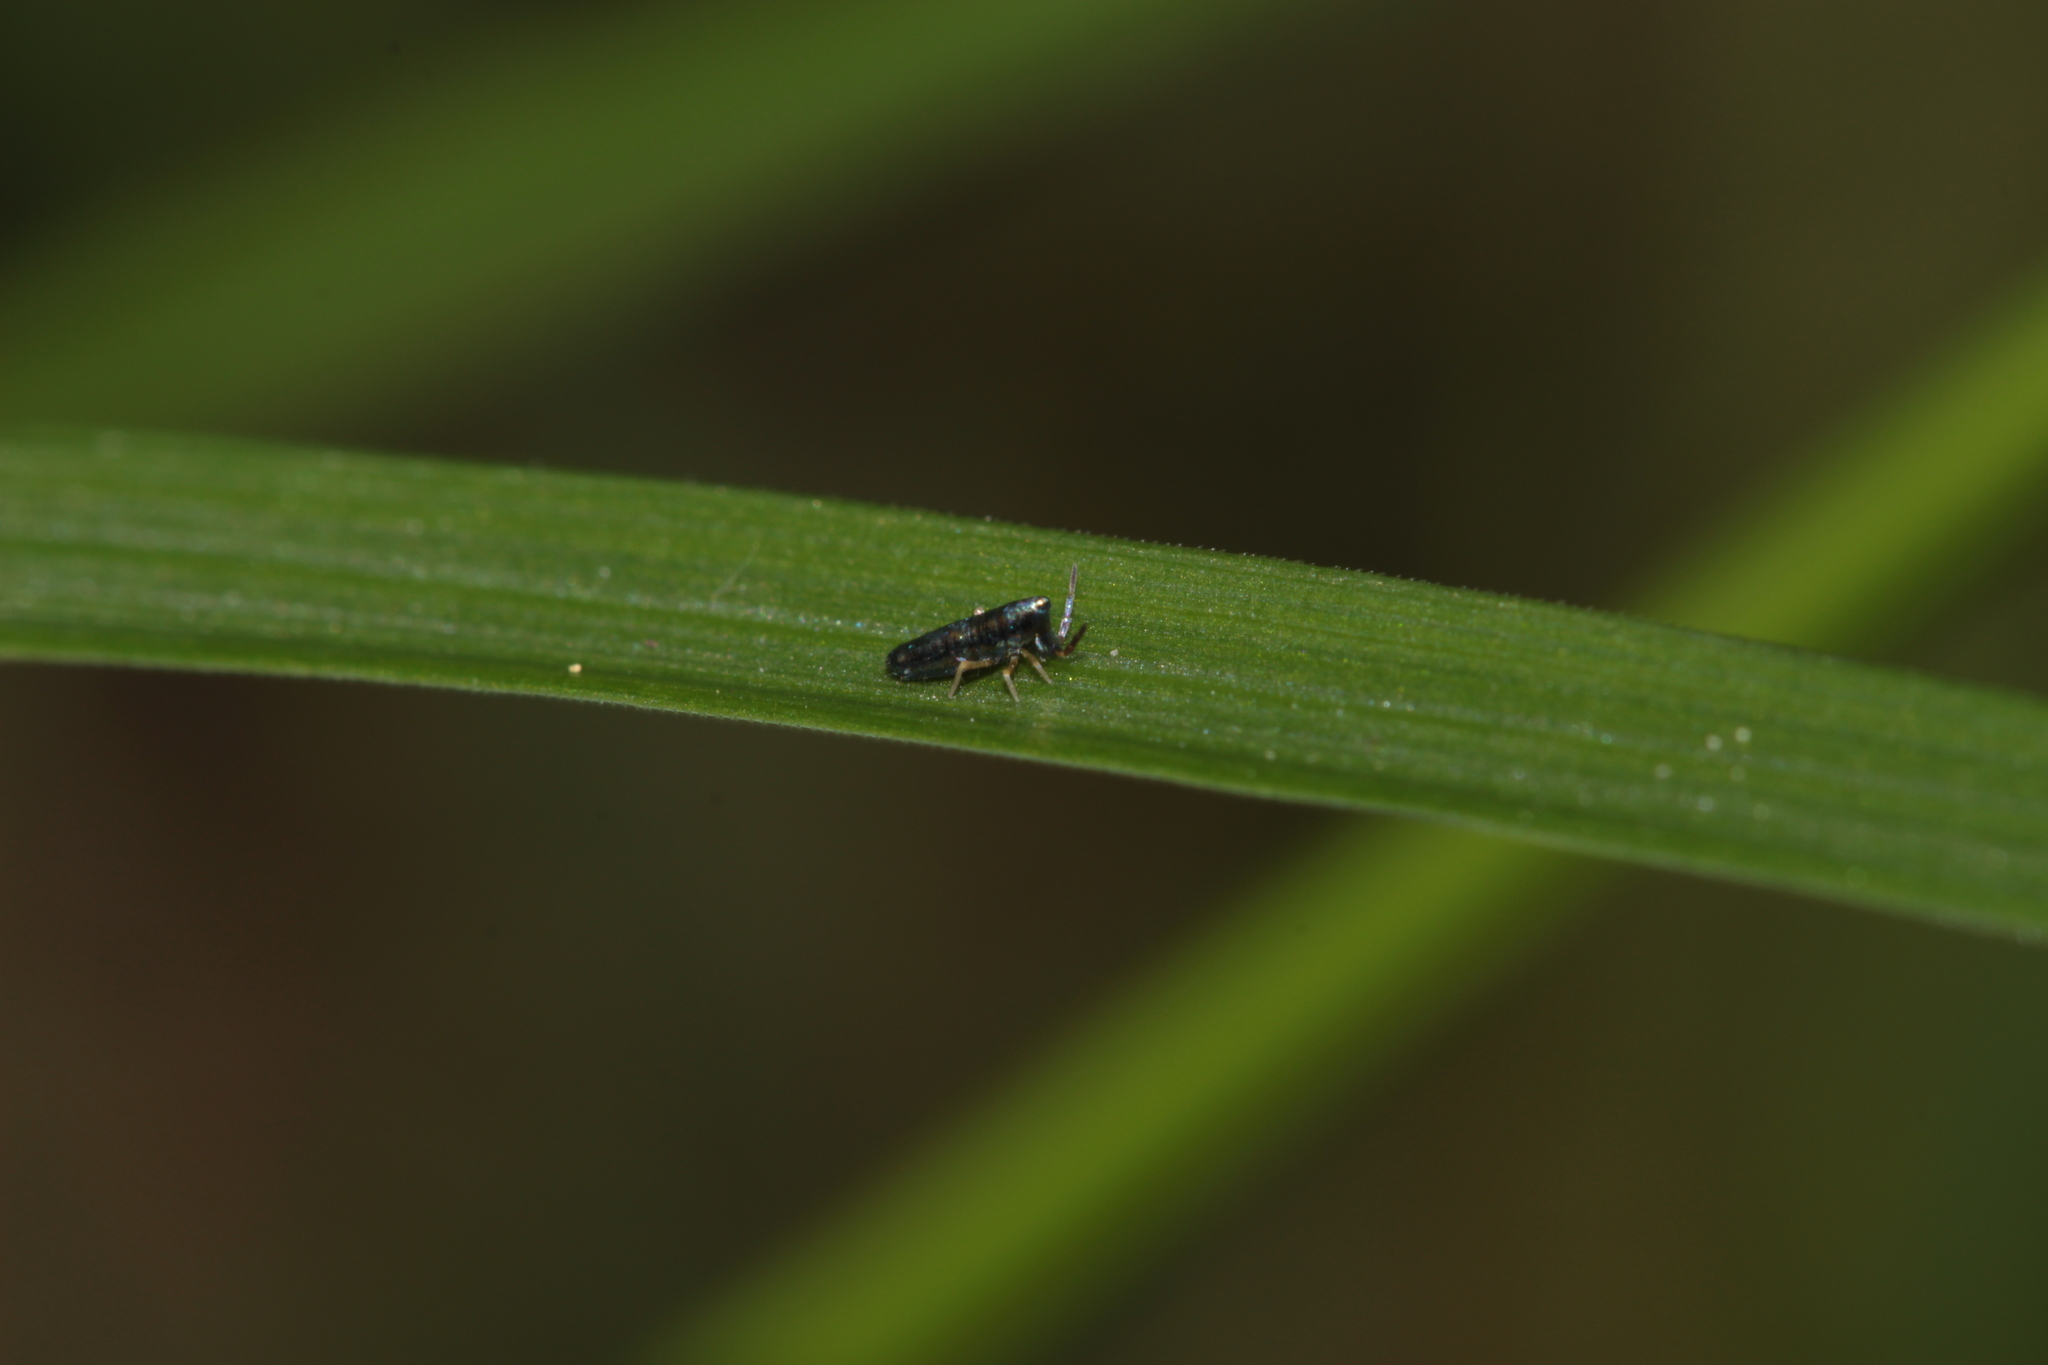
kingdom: Animalia
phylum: Arthropoda
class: Collembola
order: Entomobryomorpha
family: Entomobryidae
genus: Lepidocyrtus
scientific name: Lepidocyrtus paradoxus
